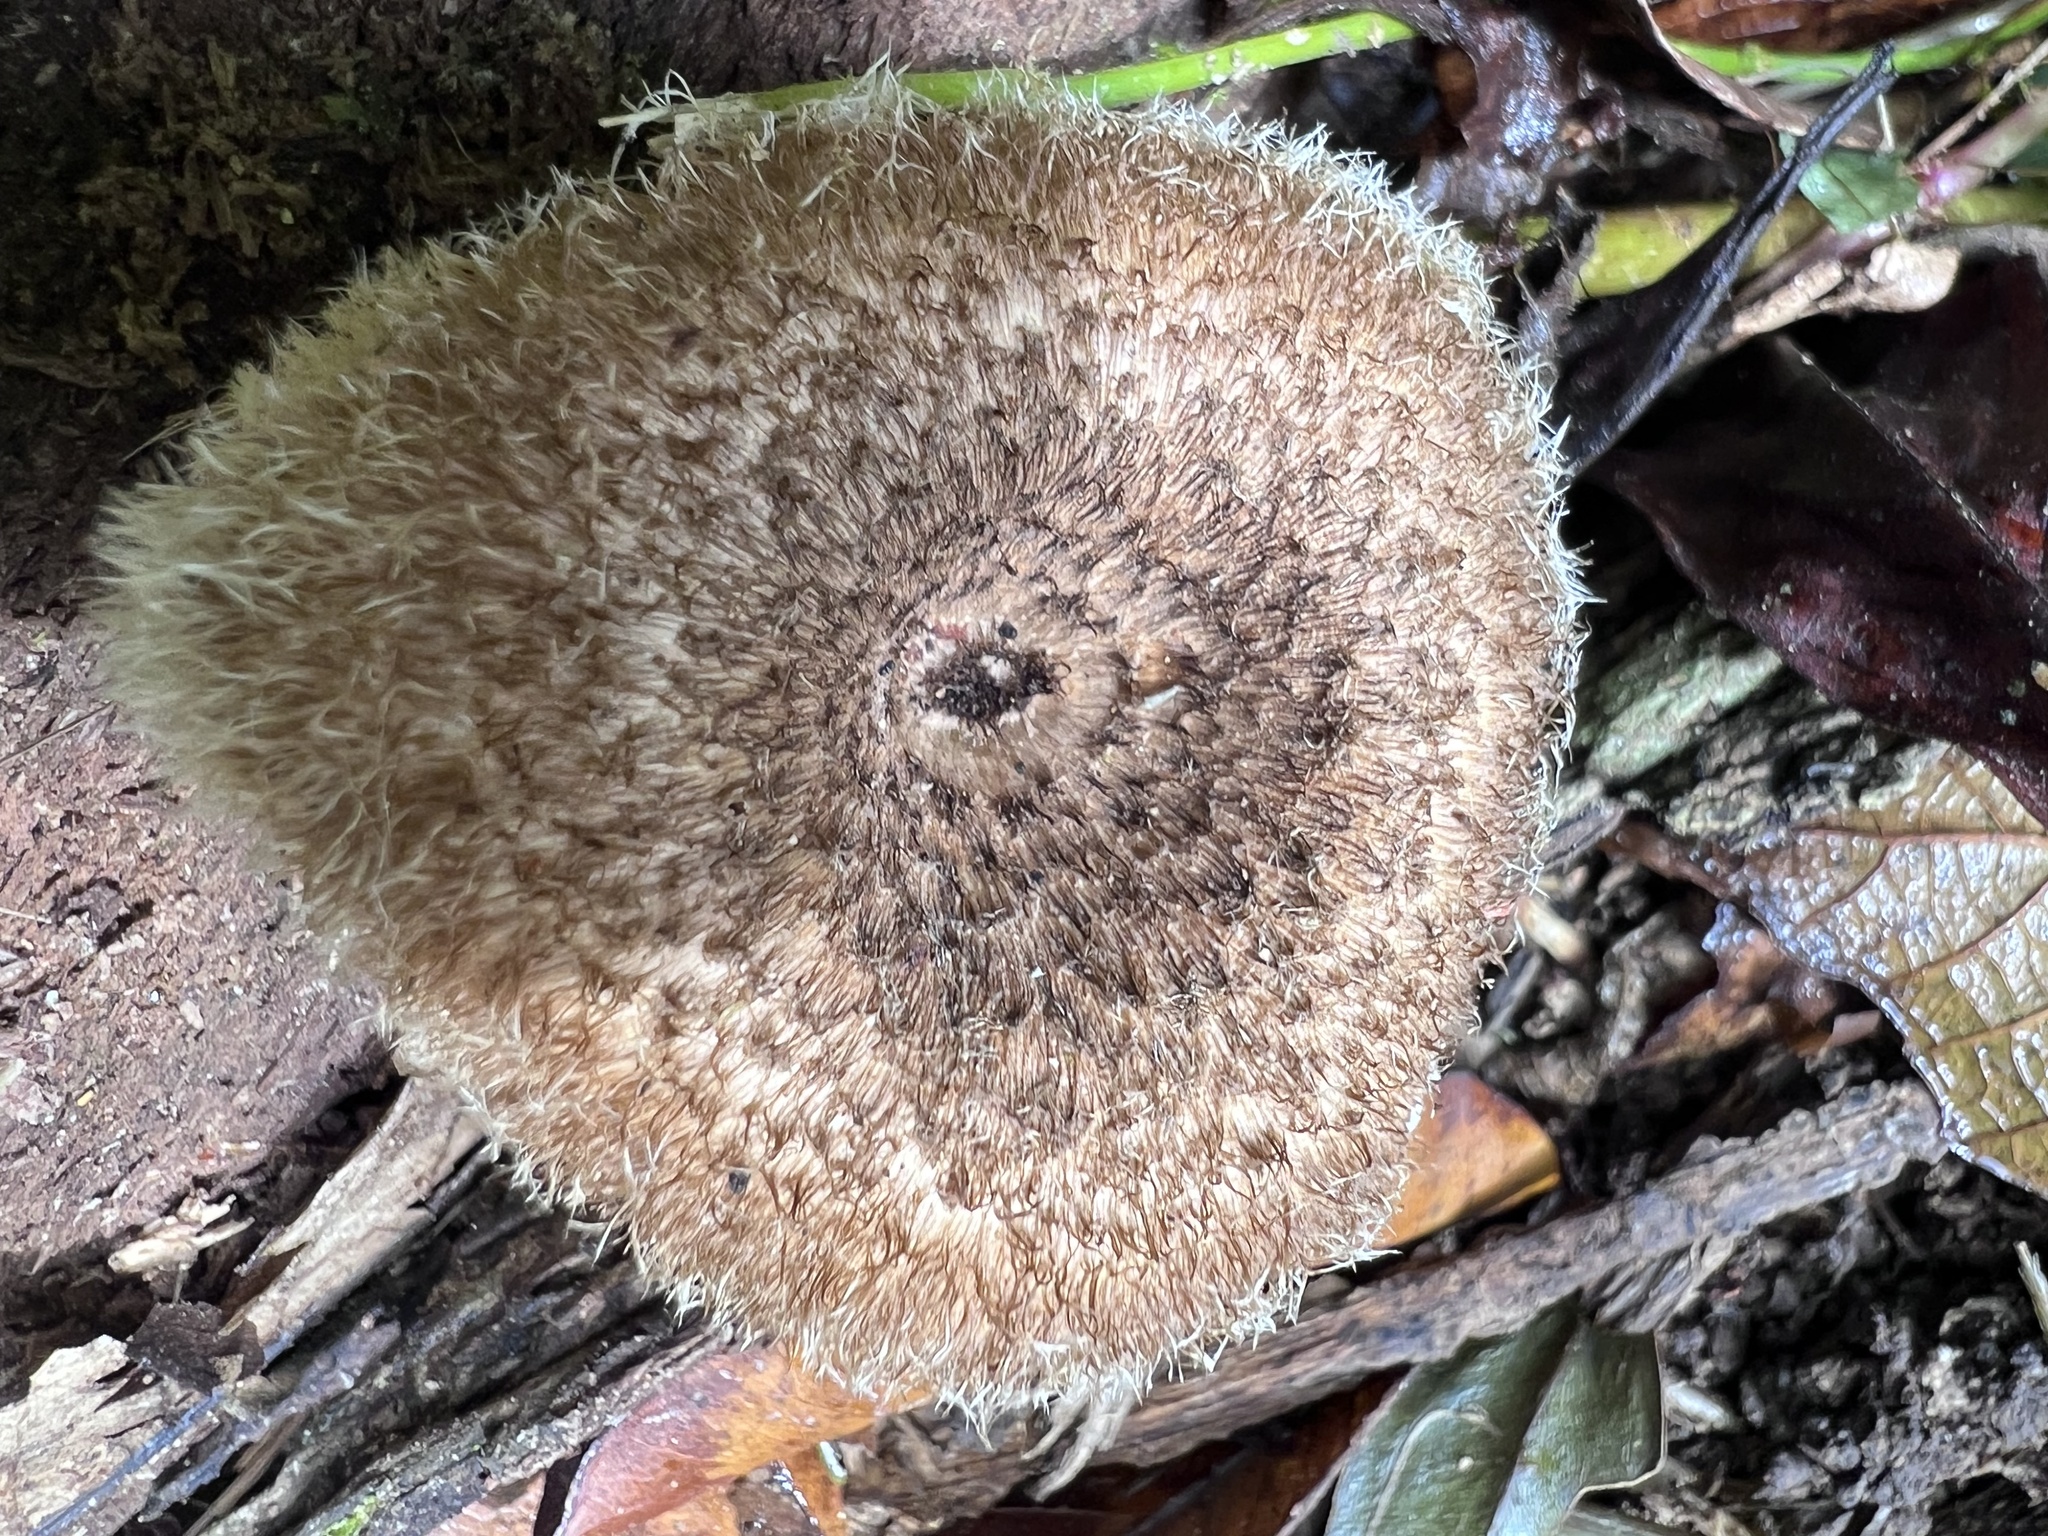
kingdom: Fungi
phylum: Basidiomycota
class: Agaricomycetes
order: Polyporales
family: Polyporaceae
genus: Lentinus
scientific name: Lentinus berteroi
